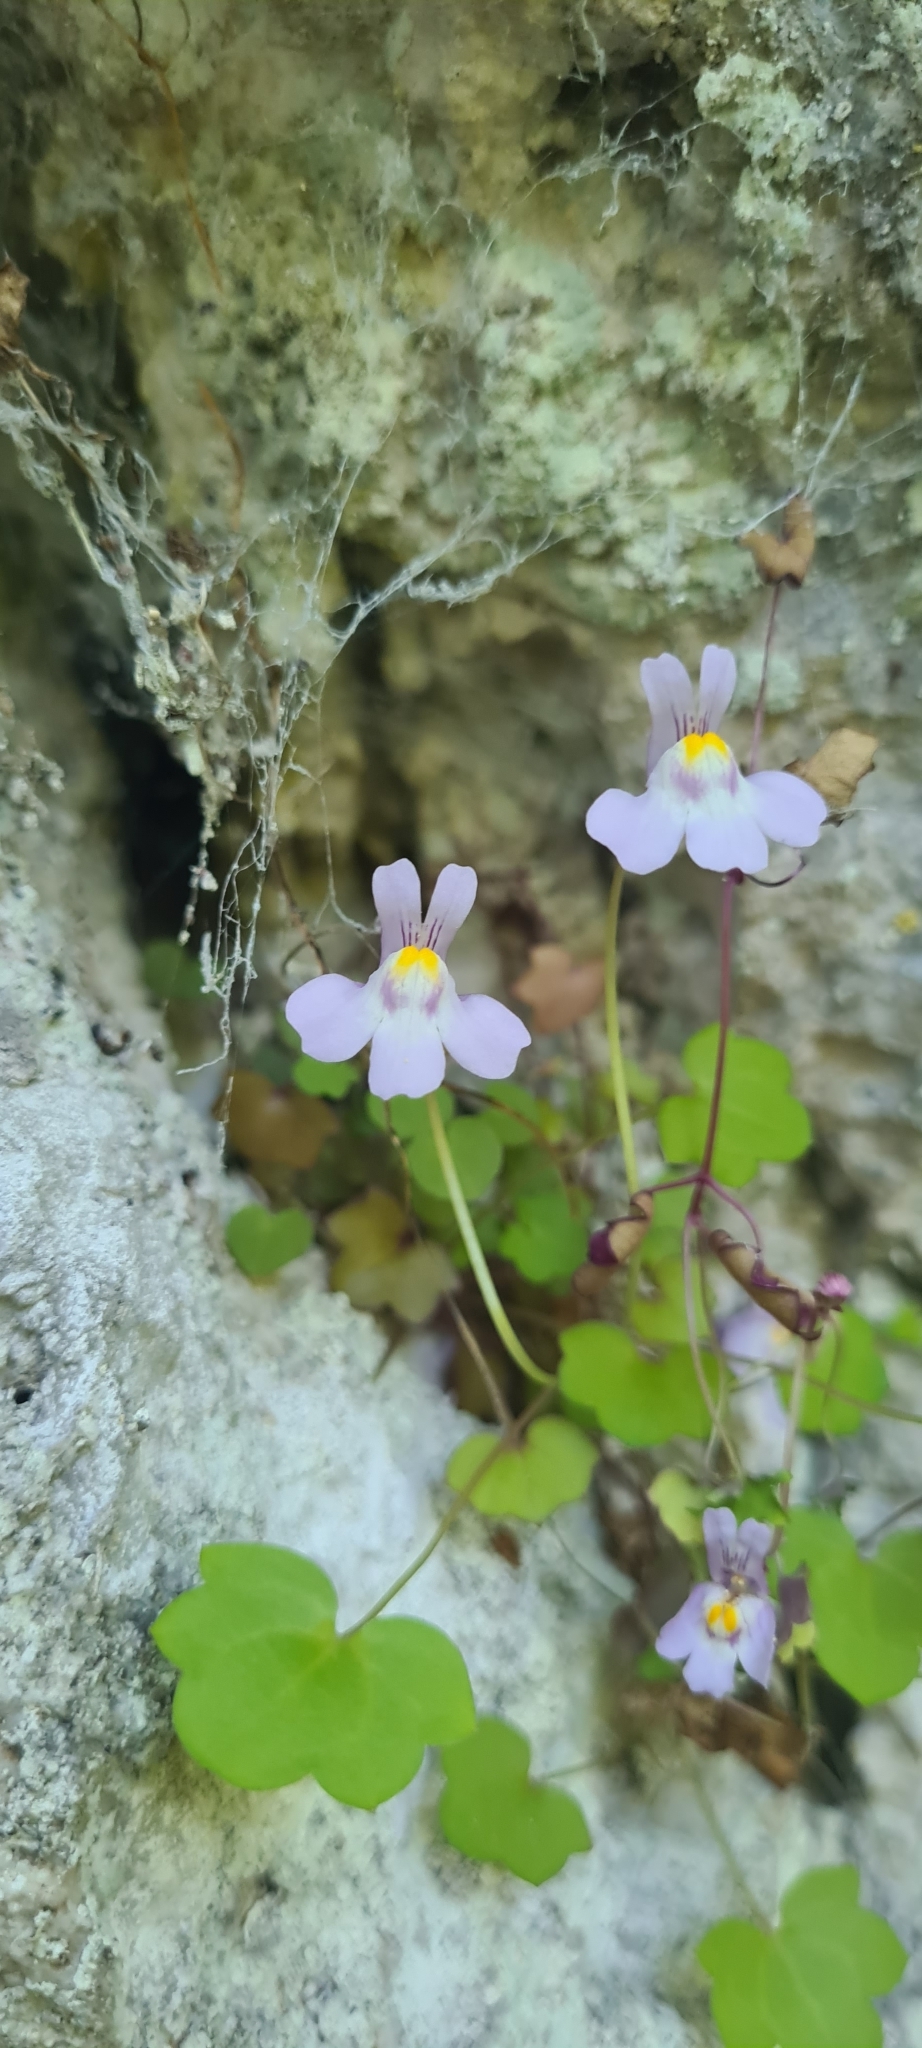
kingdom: Plantae
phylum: Tracheophyta
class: Magnoliopsida
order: Lamiales
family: Plantaginaceae
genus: Cymbalaria
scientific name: Cymbalaria muralis
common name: Ivy-leaved toadflax
